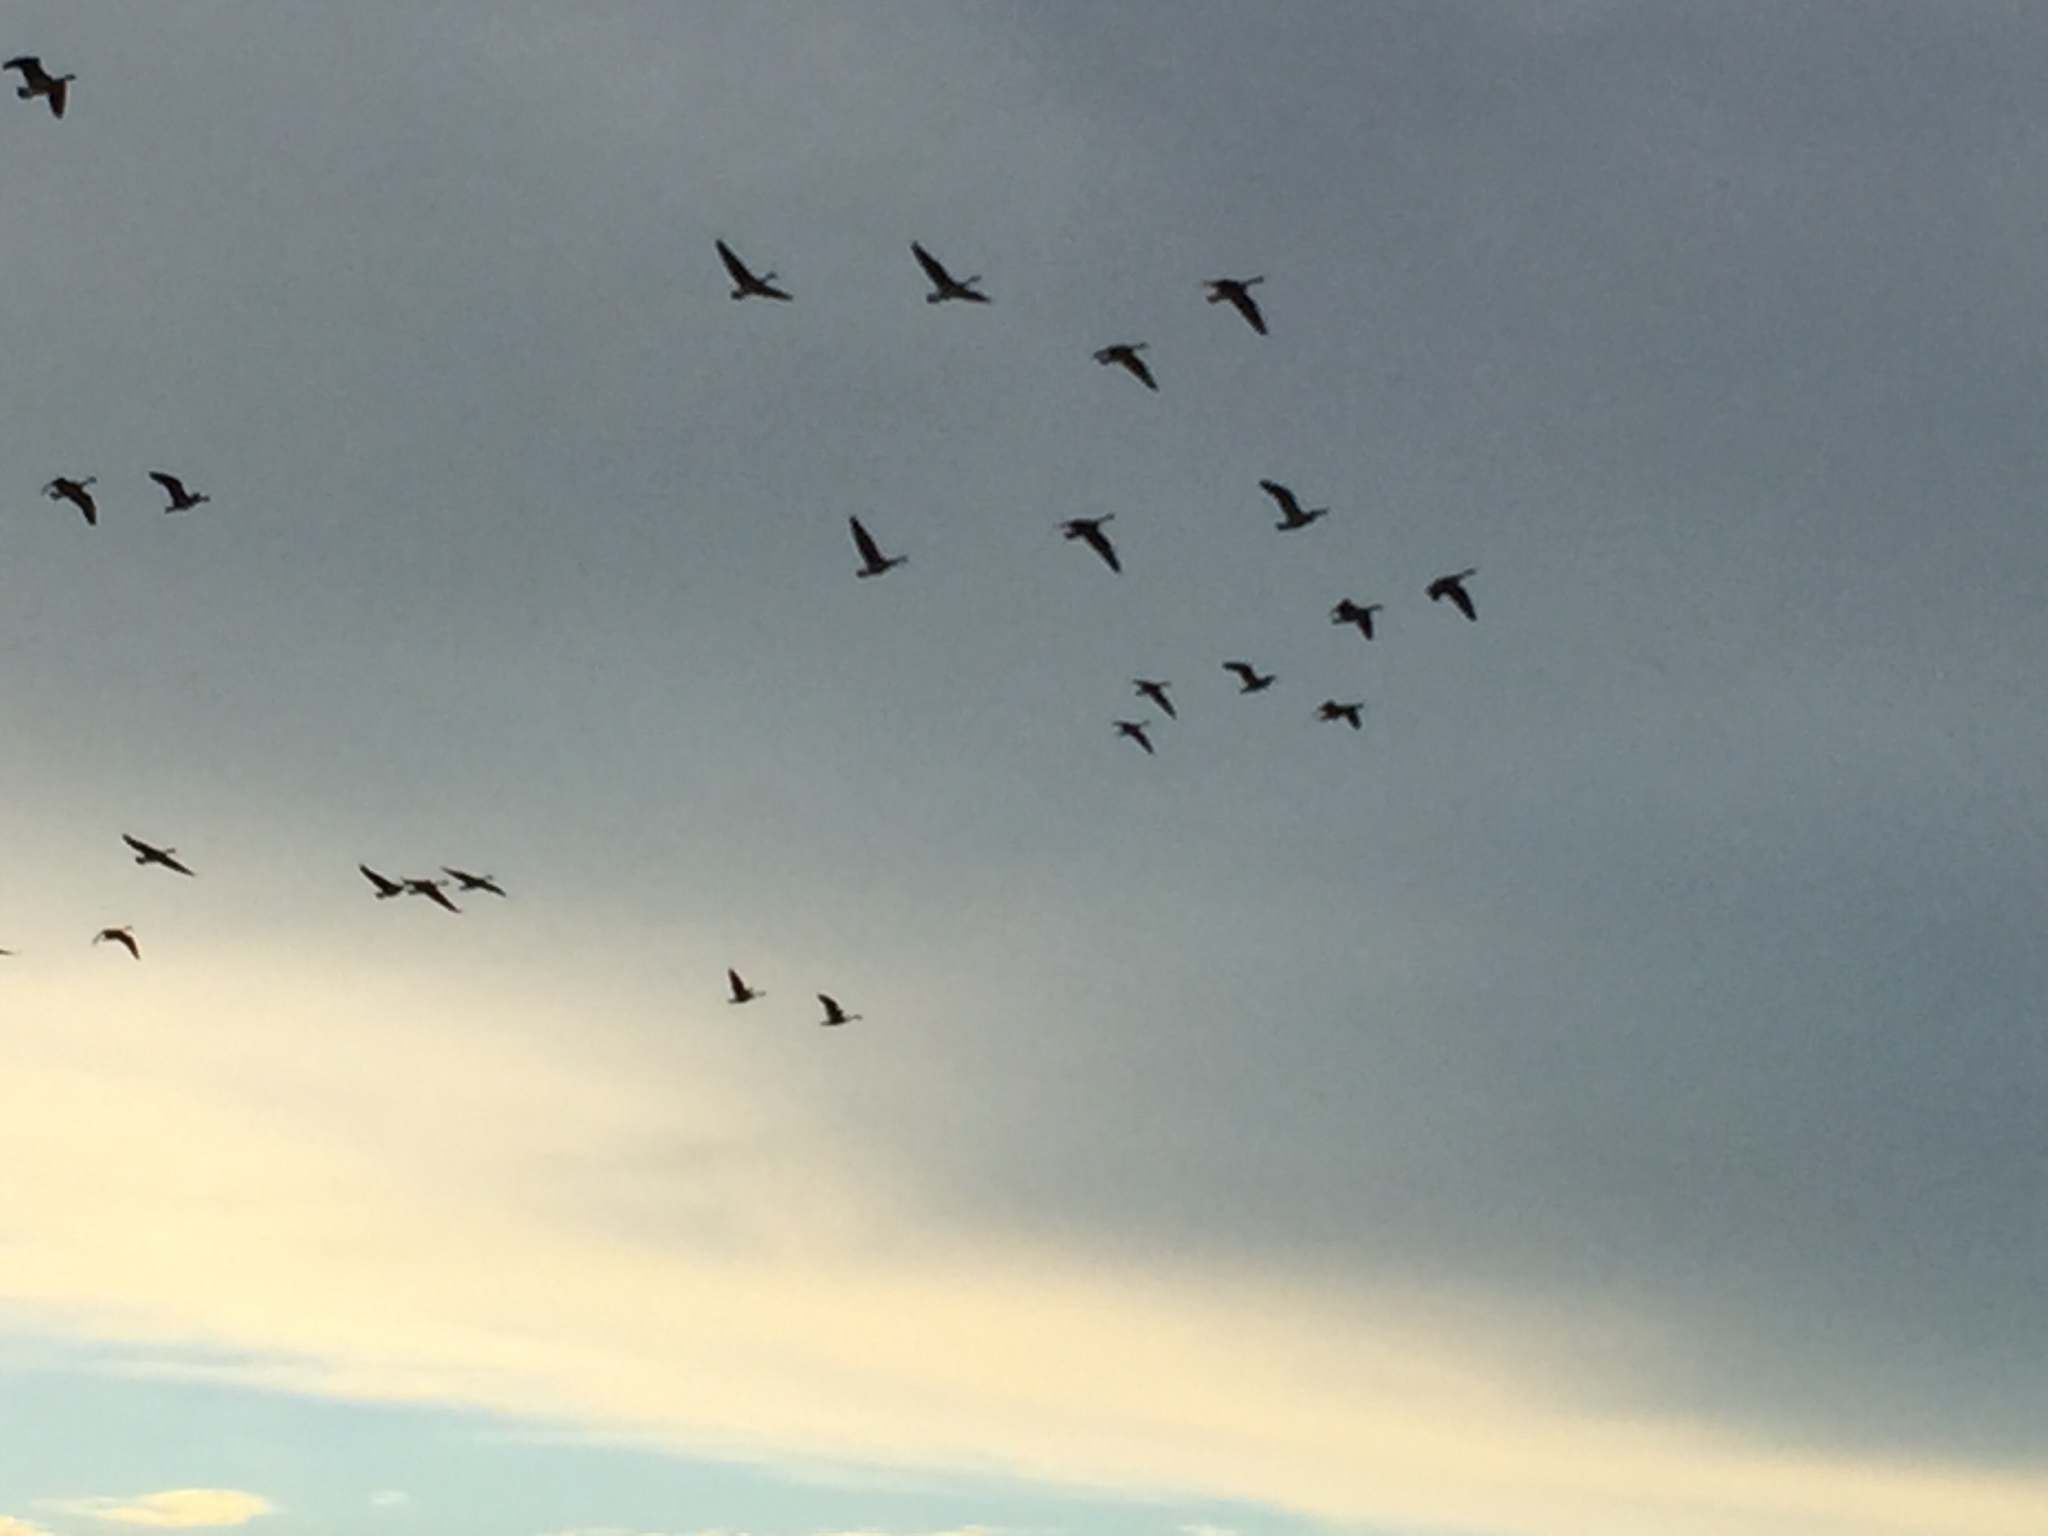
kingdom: Animalia
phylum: Chordata
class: Aves
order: Anseriformes
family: Anatidae
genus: Branta
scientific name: Branta canadensis
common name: Canada goose
